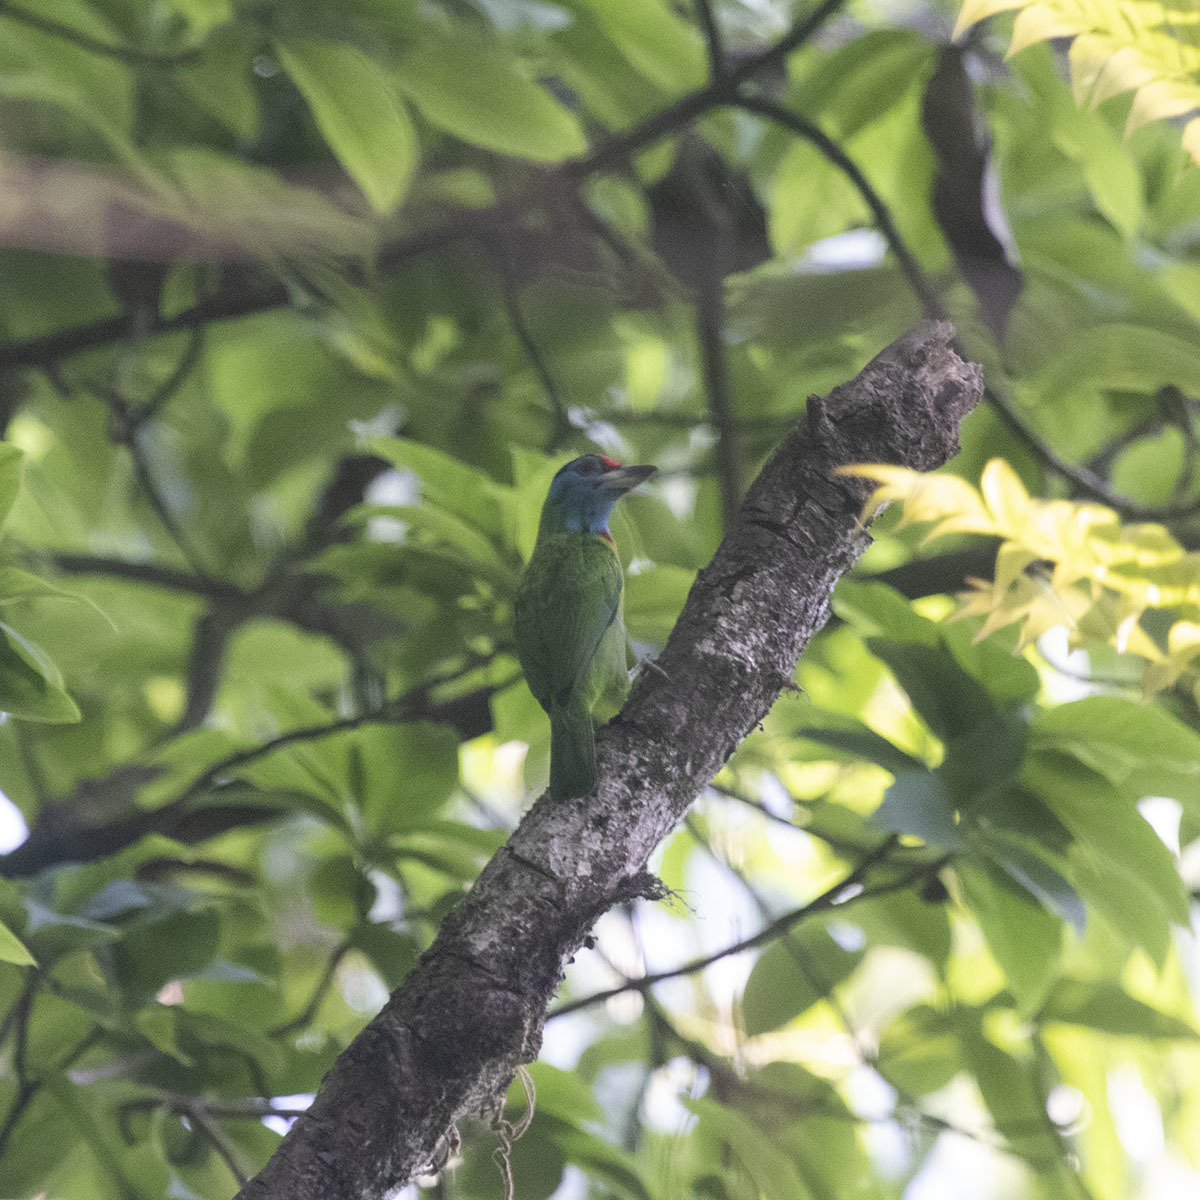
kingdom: Animalia
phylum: Chordata
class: Aves
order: Piciformes
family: Megalaimidae
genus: Psilopogon
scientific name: Psilopogon asiaticus
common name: Blue-throated barbet
